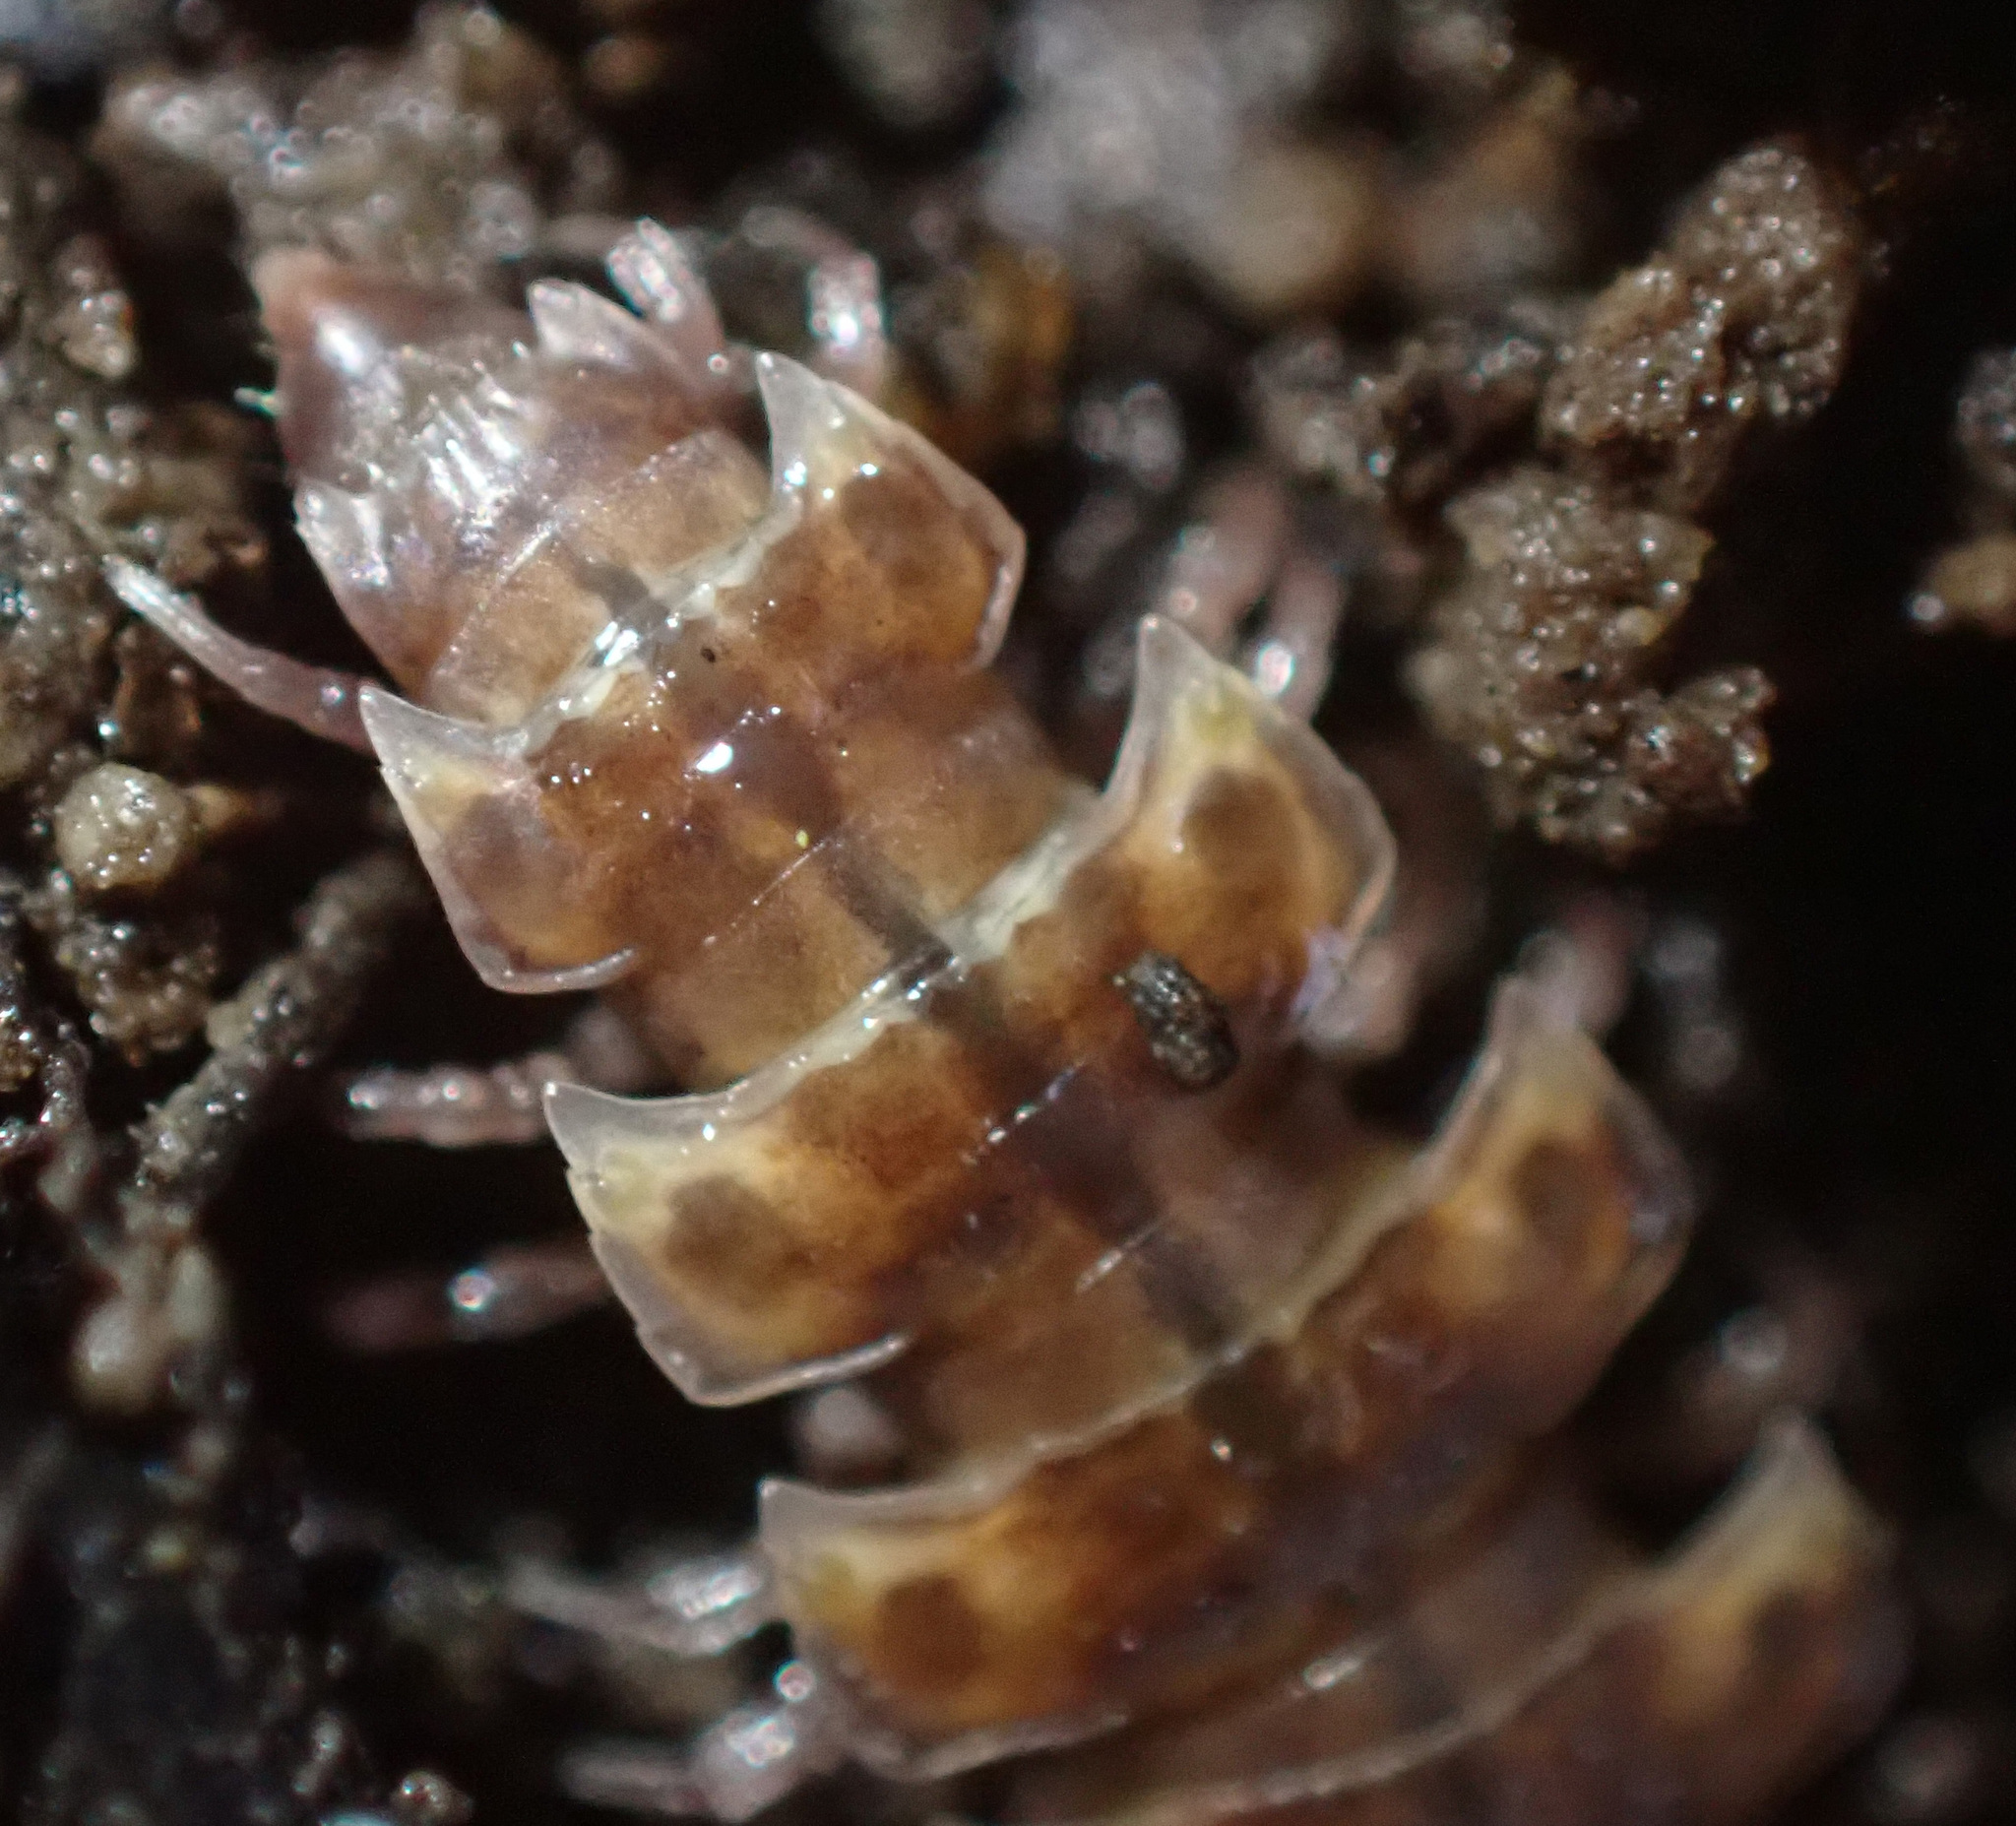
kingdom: Animalia
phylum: Arthropoda
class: Diplopoda
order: Polydesmida
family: Polydesmidae
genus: Polydesmus
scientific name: Polydesmus complanatus
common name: Flat-backed millipede
